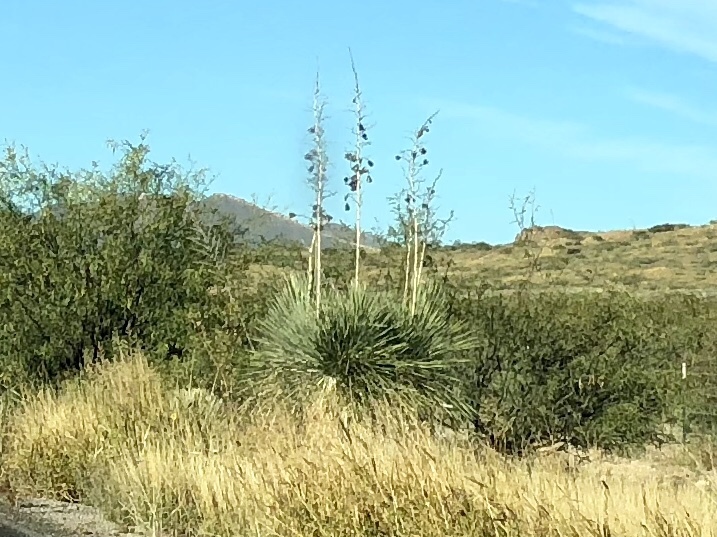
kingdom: Plantae
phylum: Tracheophyta
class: Liliopsida
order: Asparagales
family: Asparagaceae
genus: Yucca
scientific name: Yucca elata
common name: Palmella
